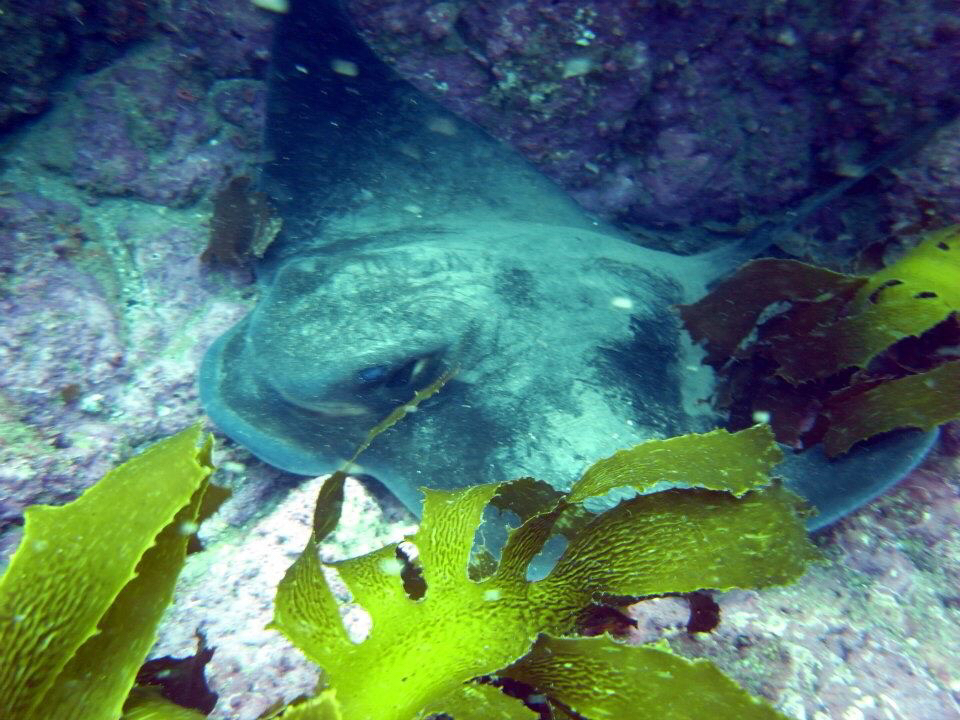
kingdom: Animalia
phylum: Chordata
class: Elasmobranchii
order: Myliobatiformes
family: Myliobatidae
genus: Myliobatis
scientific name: Myliobatis tenuicaudatus
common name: Eagle ray
